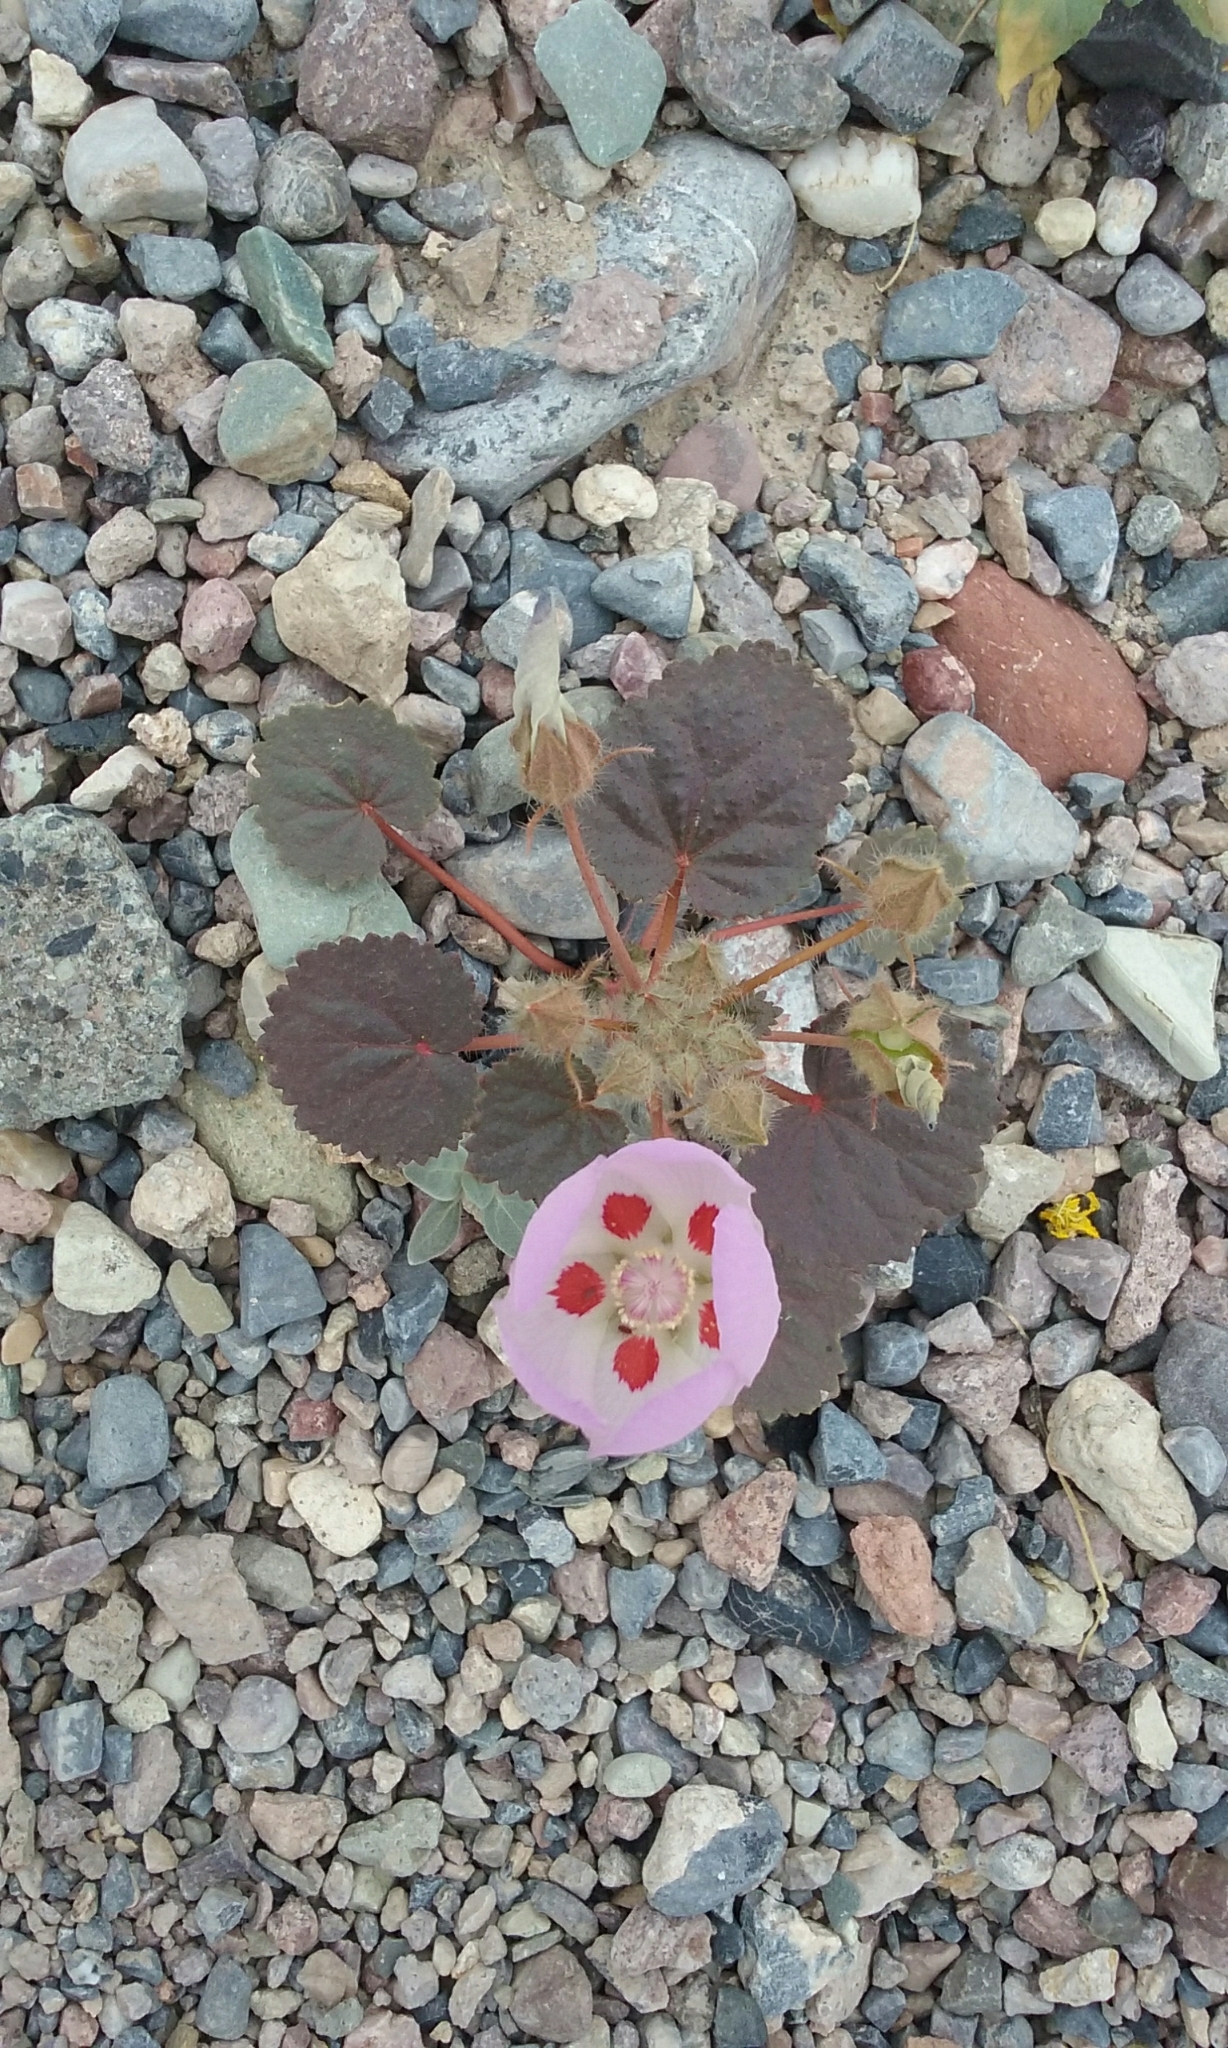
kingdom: Plantae
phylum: Tracheophyta
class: Magnoliopsida
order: Malvales
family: Malvaceae
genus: Eremalche
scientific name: Eremalche rotundifolia
